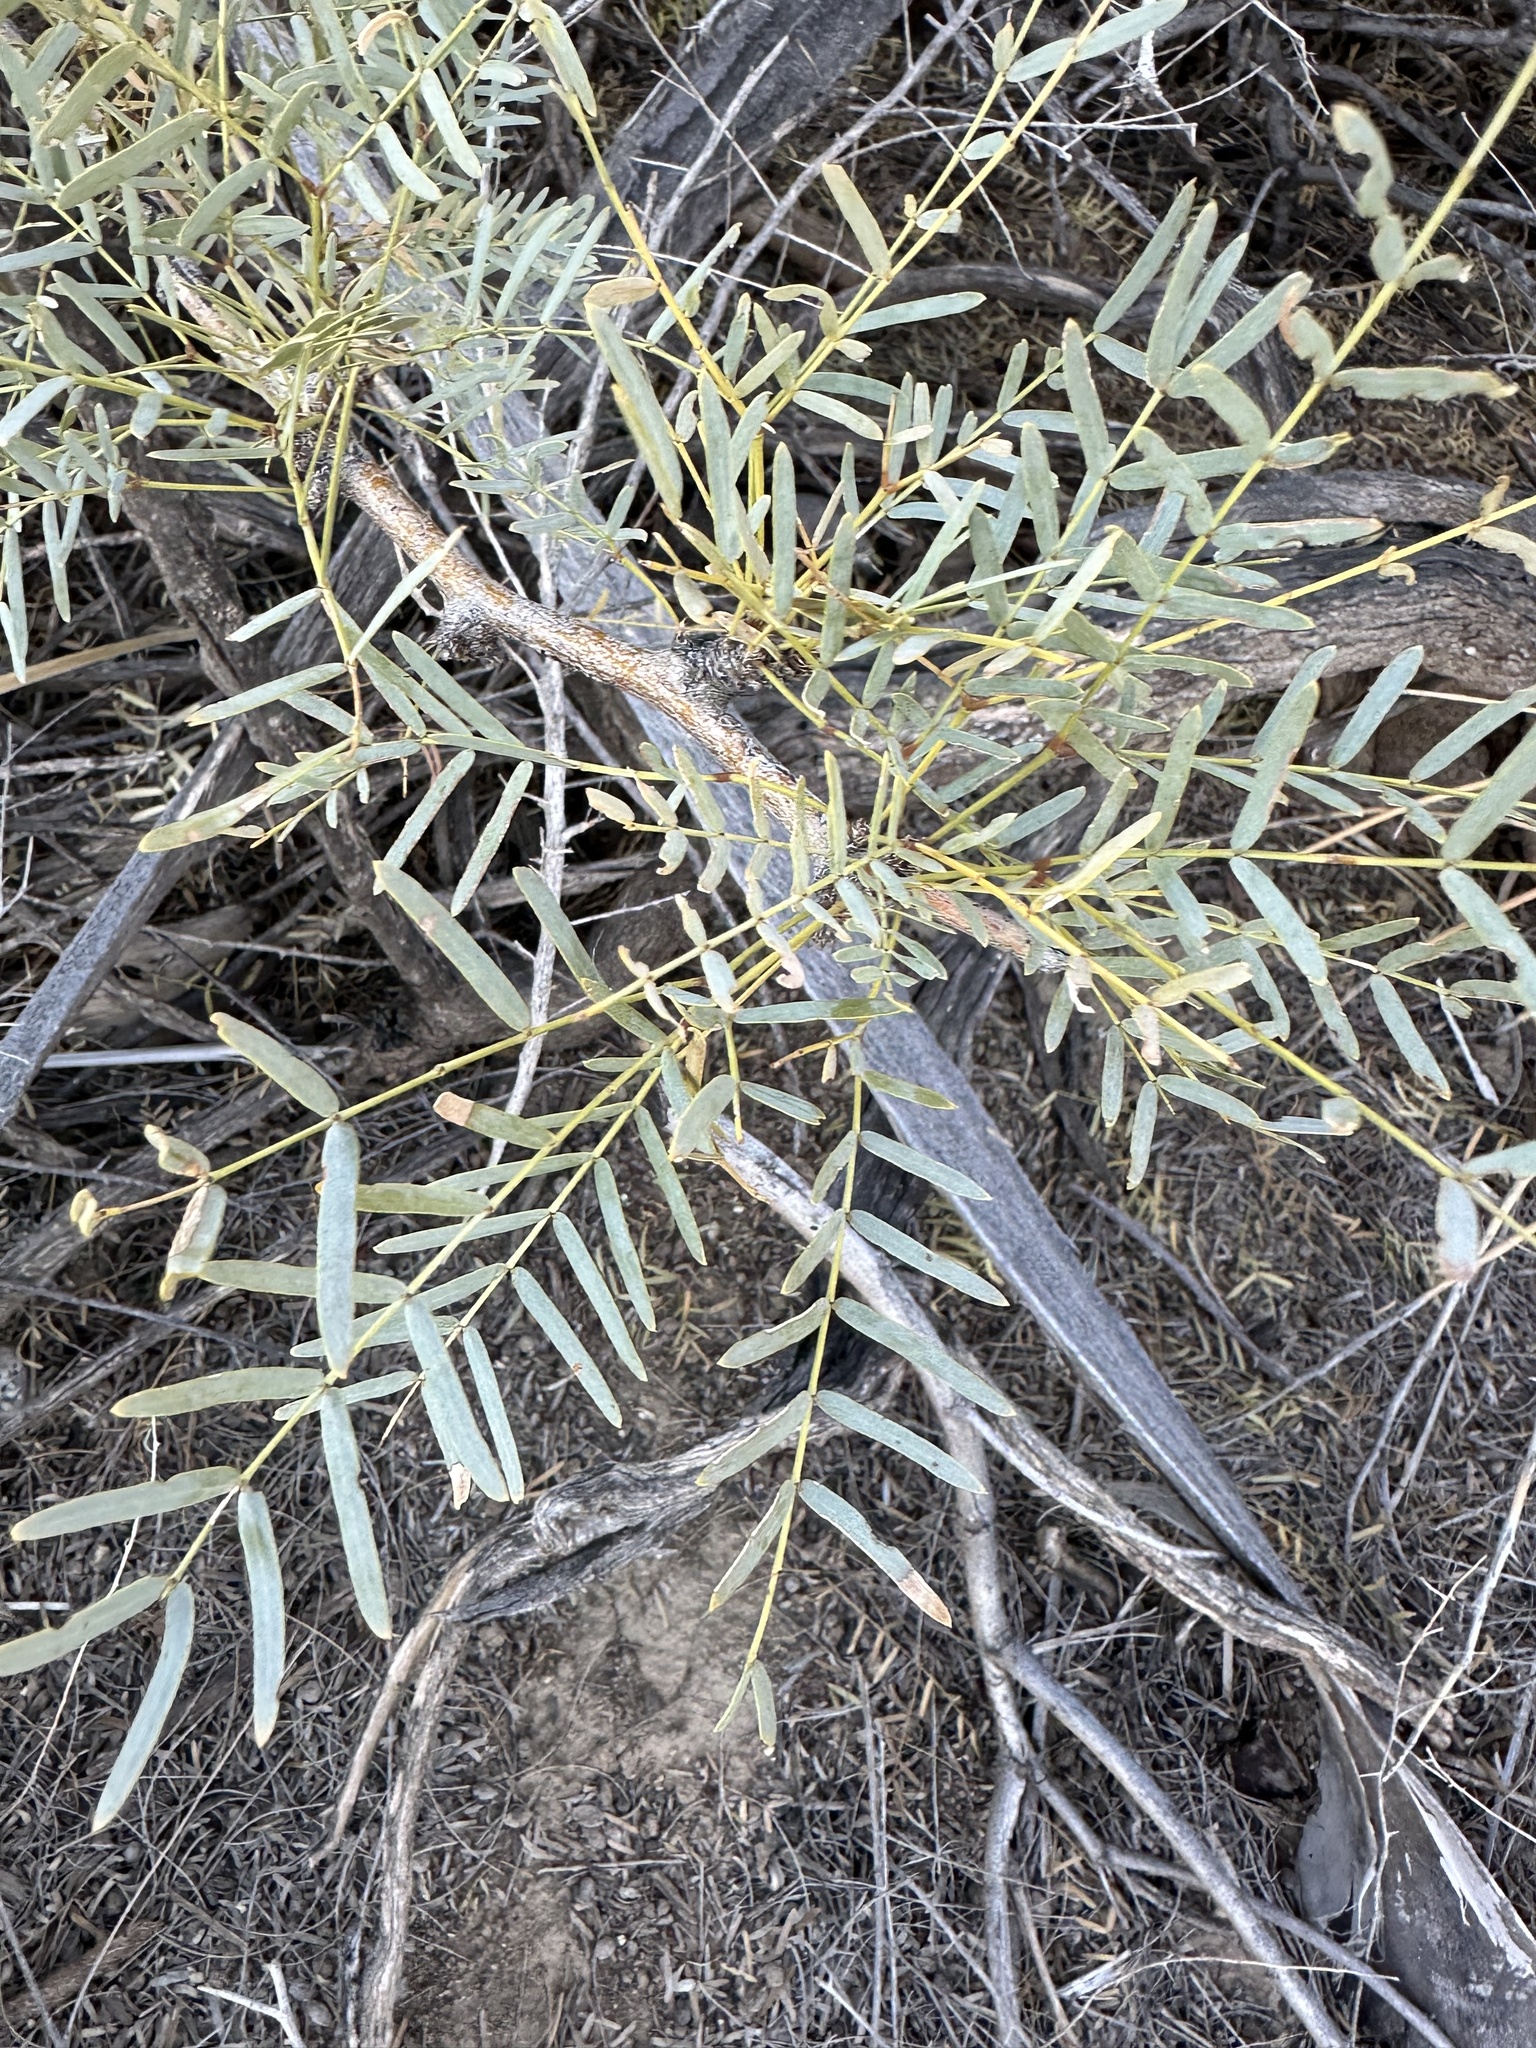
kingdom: Plantae
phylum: Tracheophyta
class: Magnoliopsida
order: Fabales
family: Fabaceae
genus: Prosopis
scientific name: Prosopis pubescens
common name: Screw-bean
